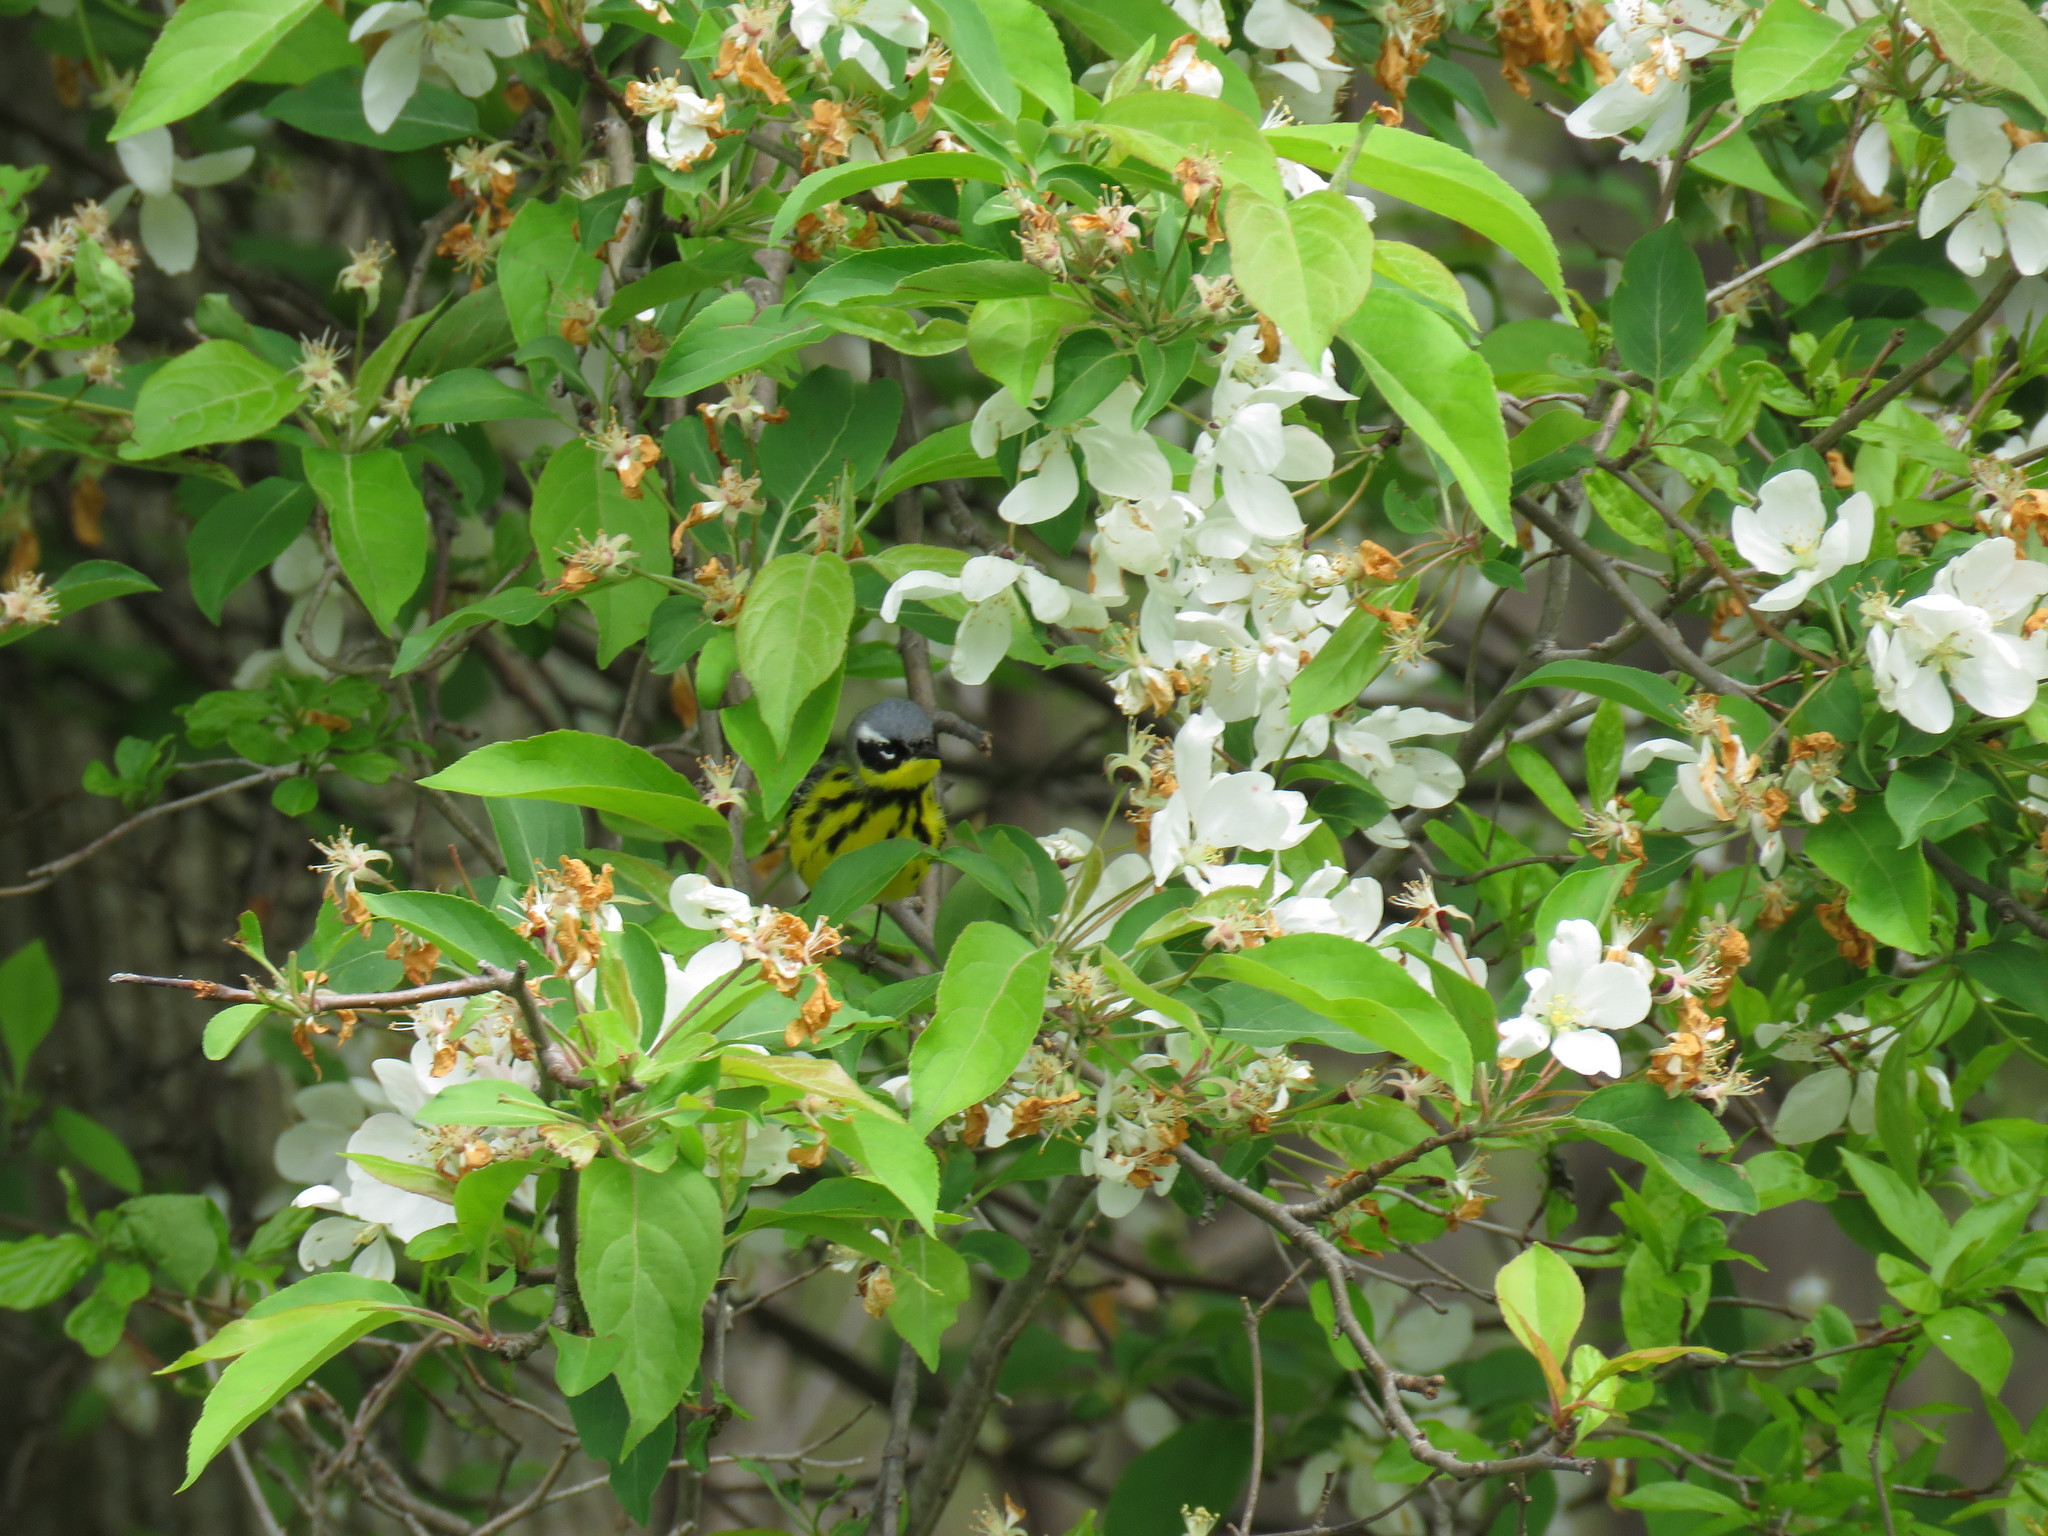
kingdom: Animalia
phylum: Chordata
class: Aves
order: Passeriformes
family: Parulidae
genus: Setophaga
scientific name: Setophaga magnolia
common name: Magnolia warbler
